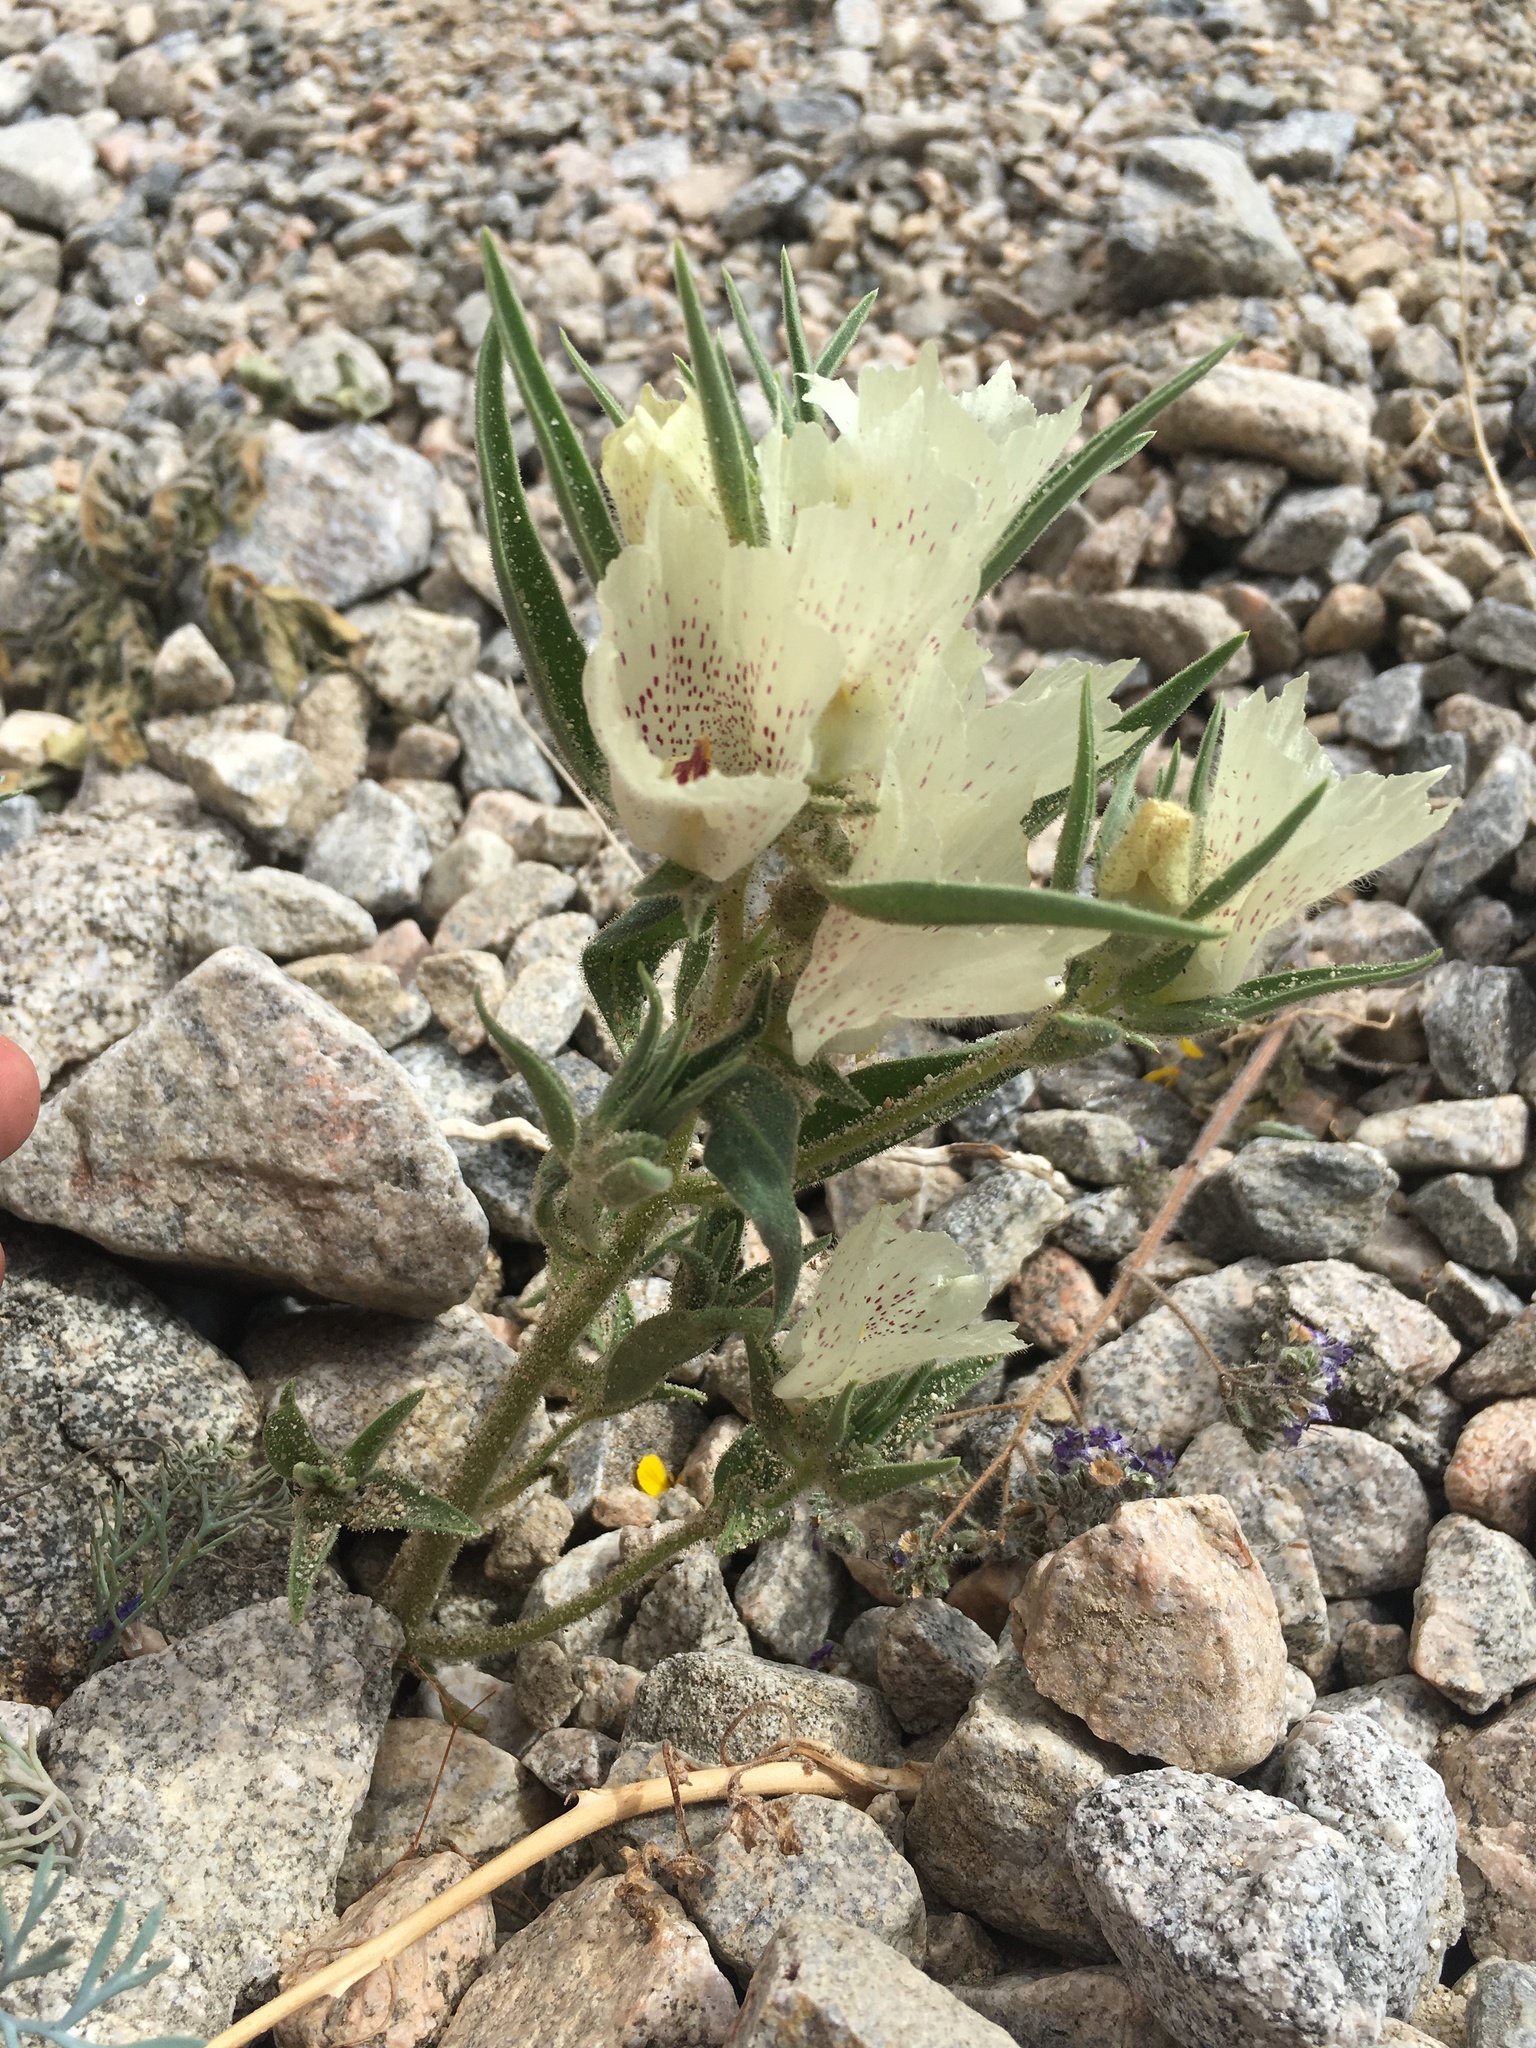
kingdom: Plantae
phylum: Tracheophyta
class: Magnoliopsida
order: Lamiales
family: Plantaginaceae
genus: Mohavea
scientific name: Mohavea confertiflora
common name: Ghost flower
